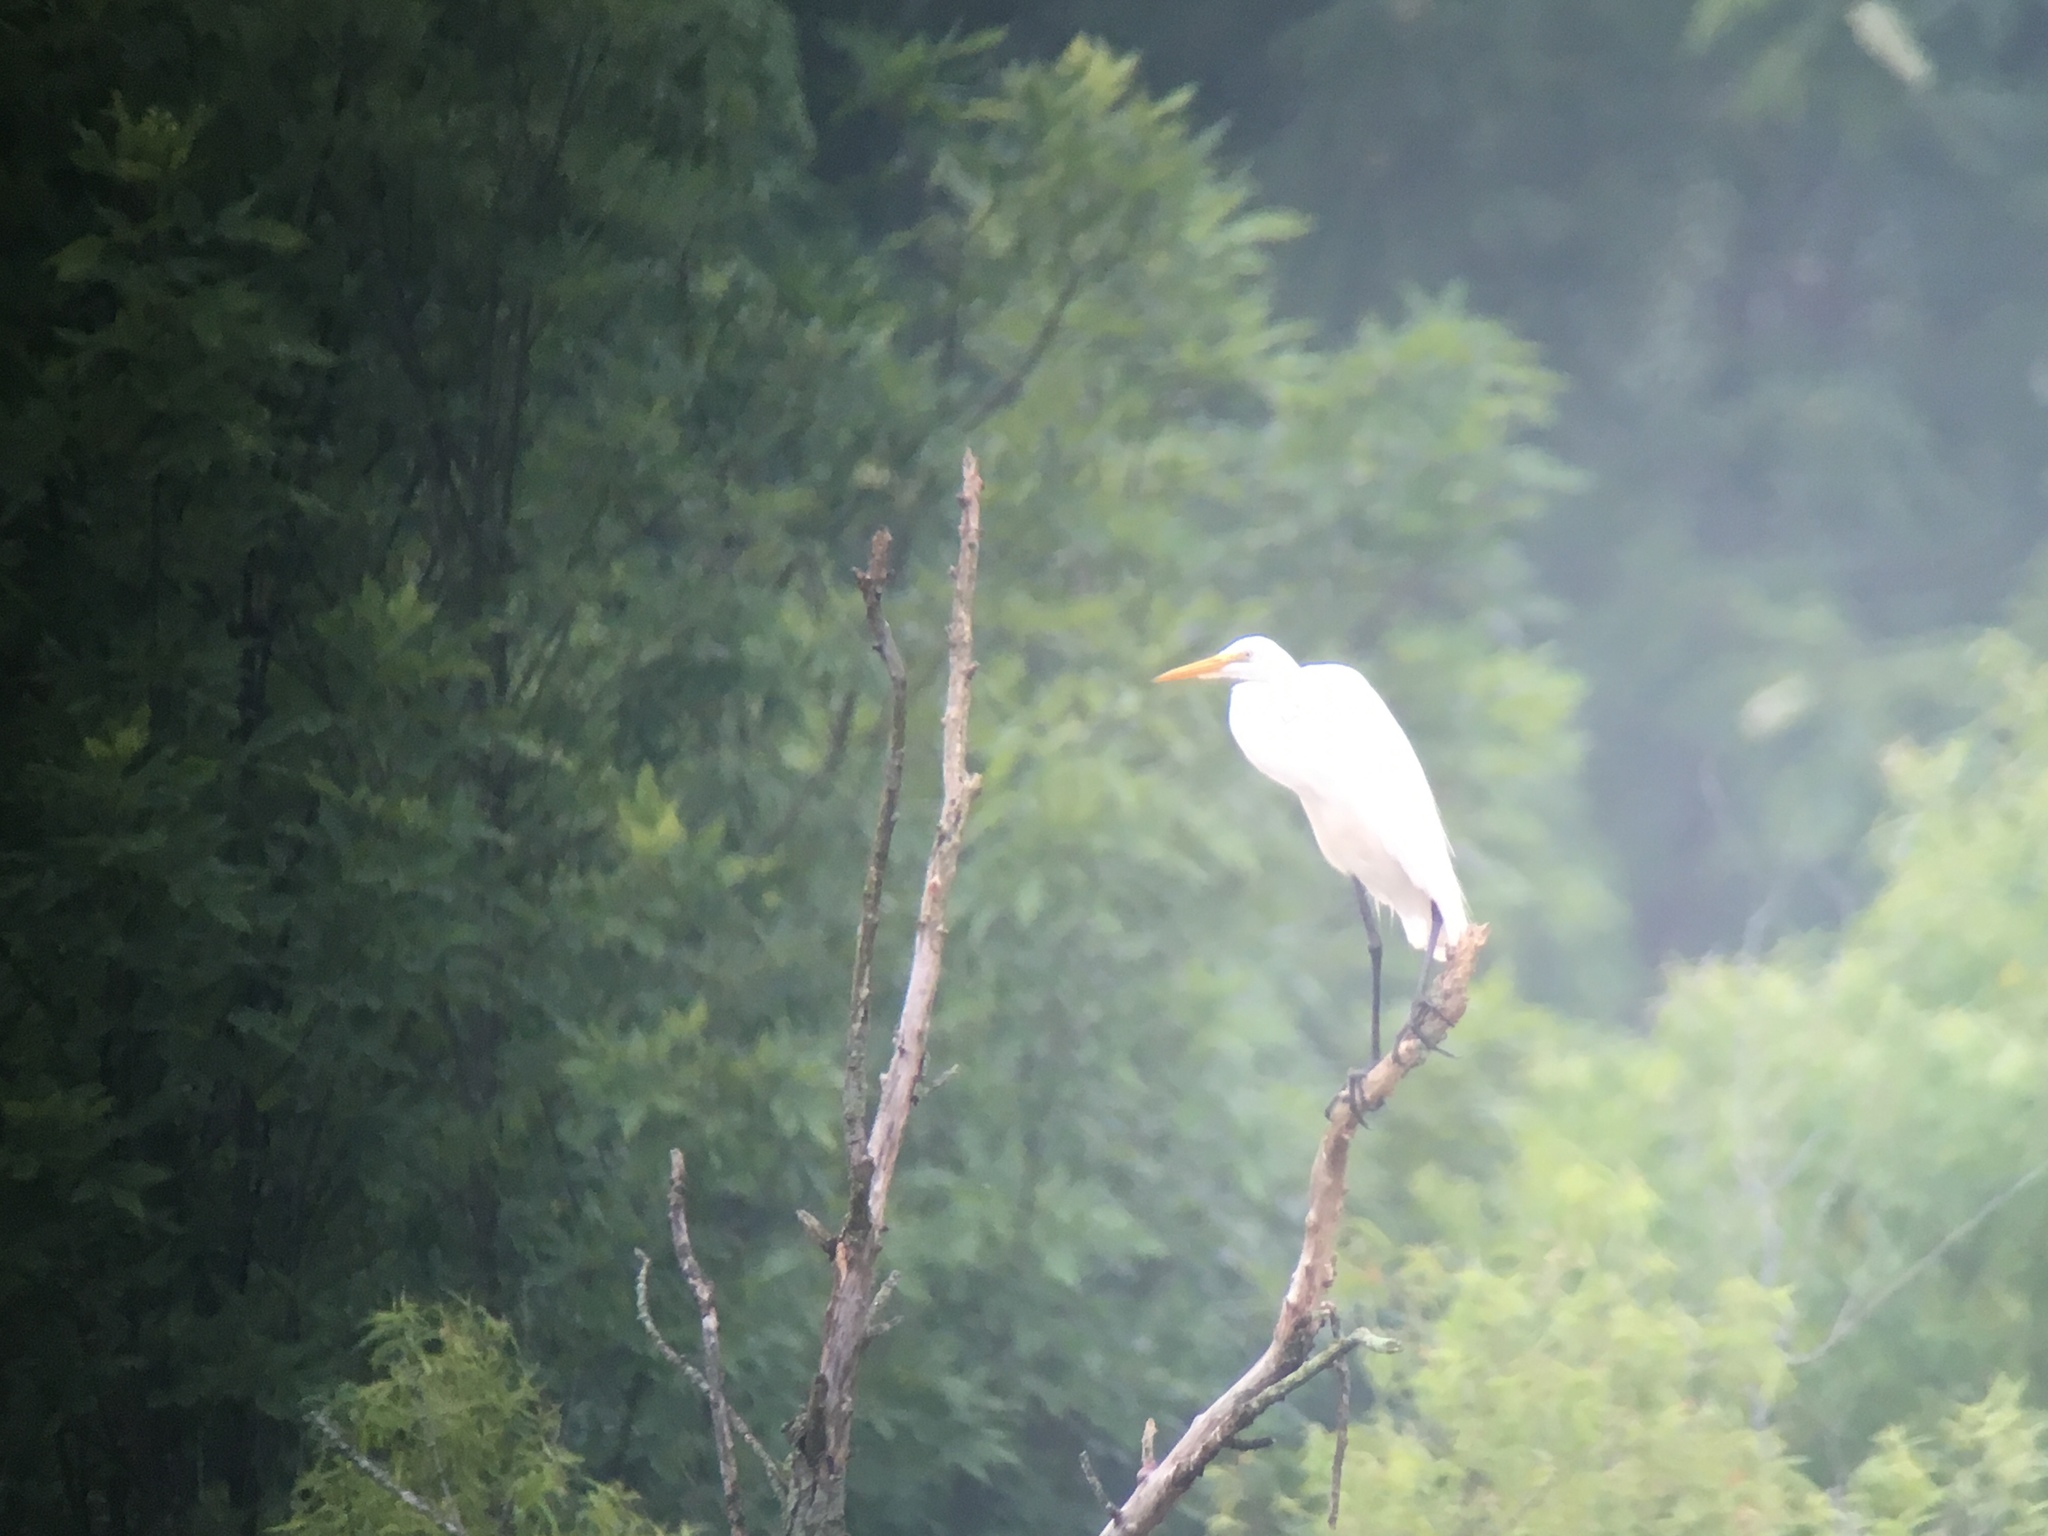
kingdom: Animalia
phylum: Chordata
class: Aves
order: Pelecaniformes
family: Ardeidae
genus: Ardea
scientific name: Ardea alba
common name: Great egret
